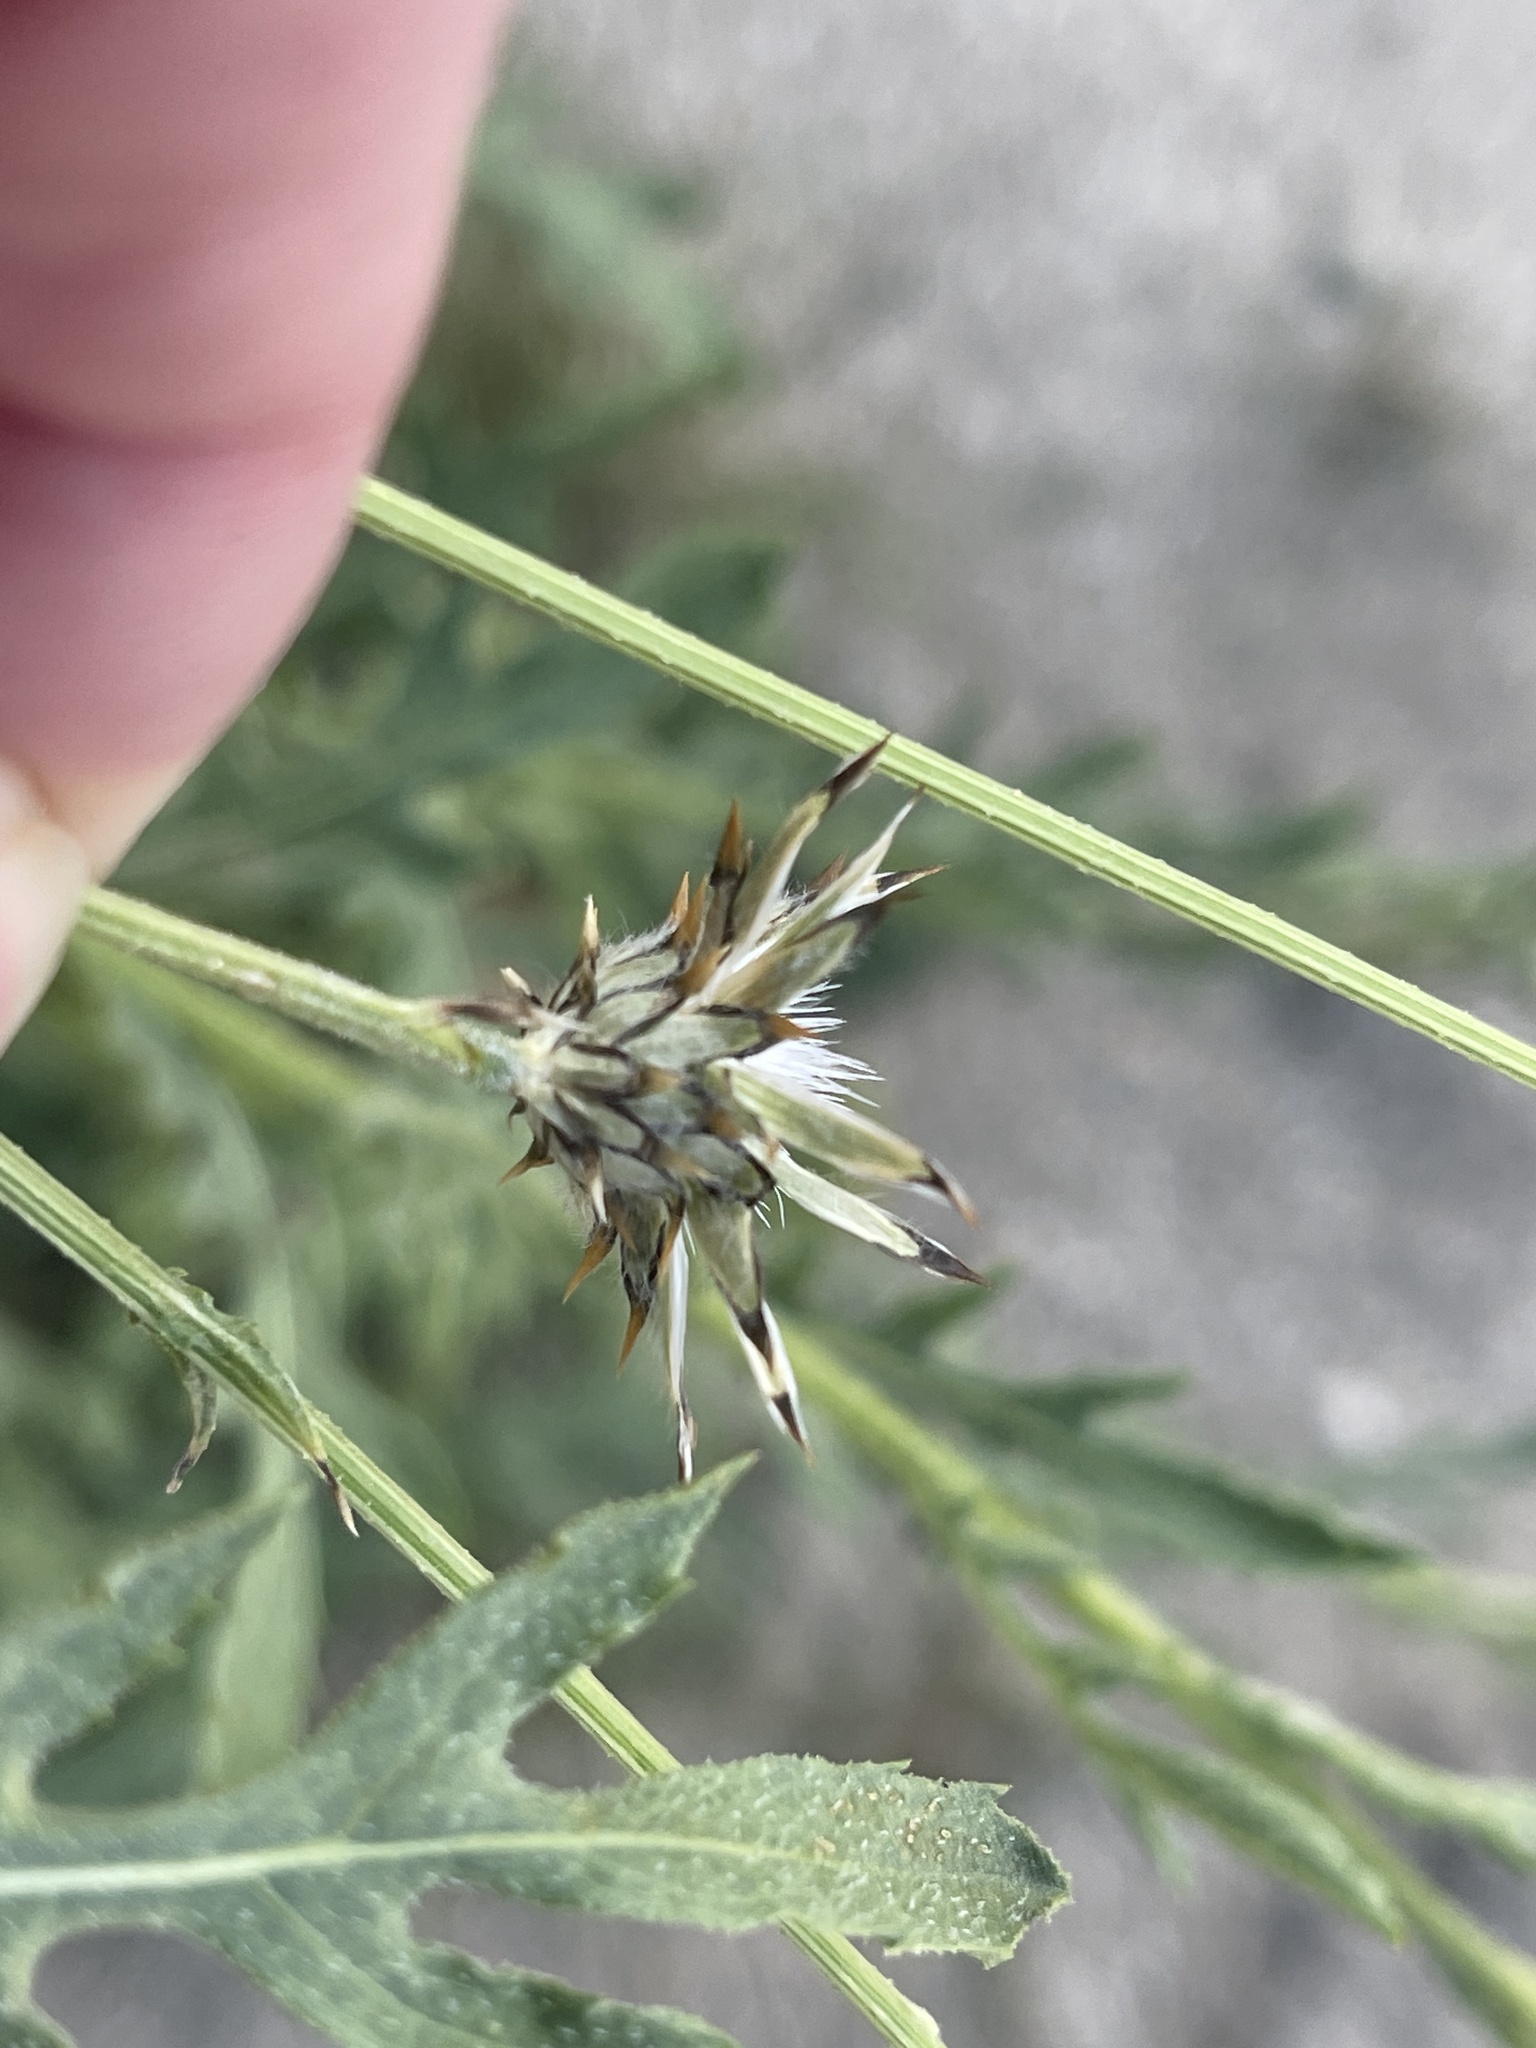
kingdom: Plantae
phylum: Tracheophyta
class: Magnoliopsida
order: Asterales
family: Asteraceae
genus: Volutaria
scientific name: Volutaria tubuliflora
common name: Desert knapweed
